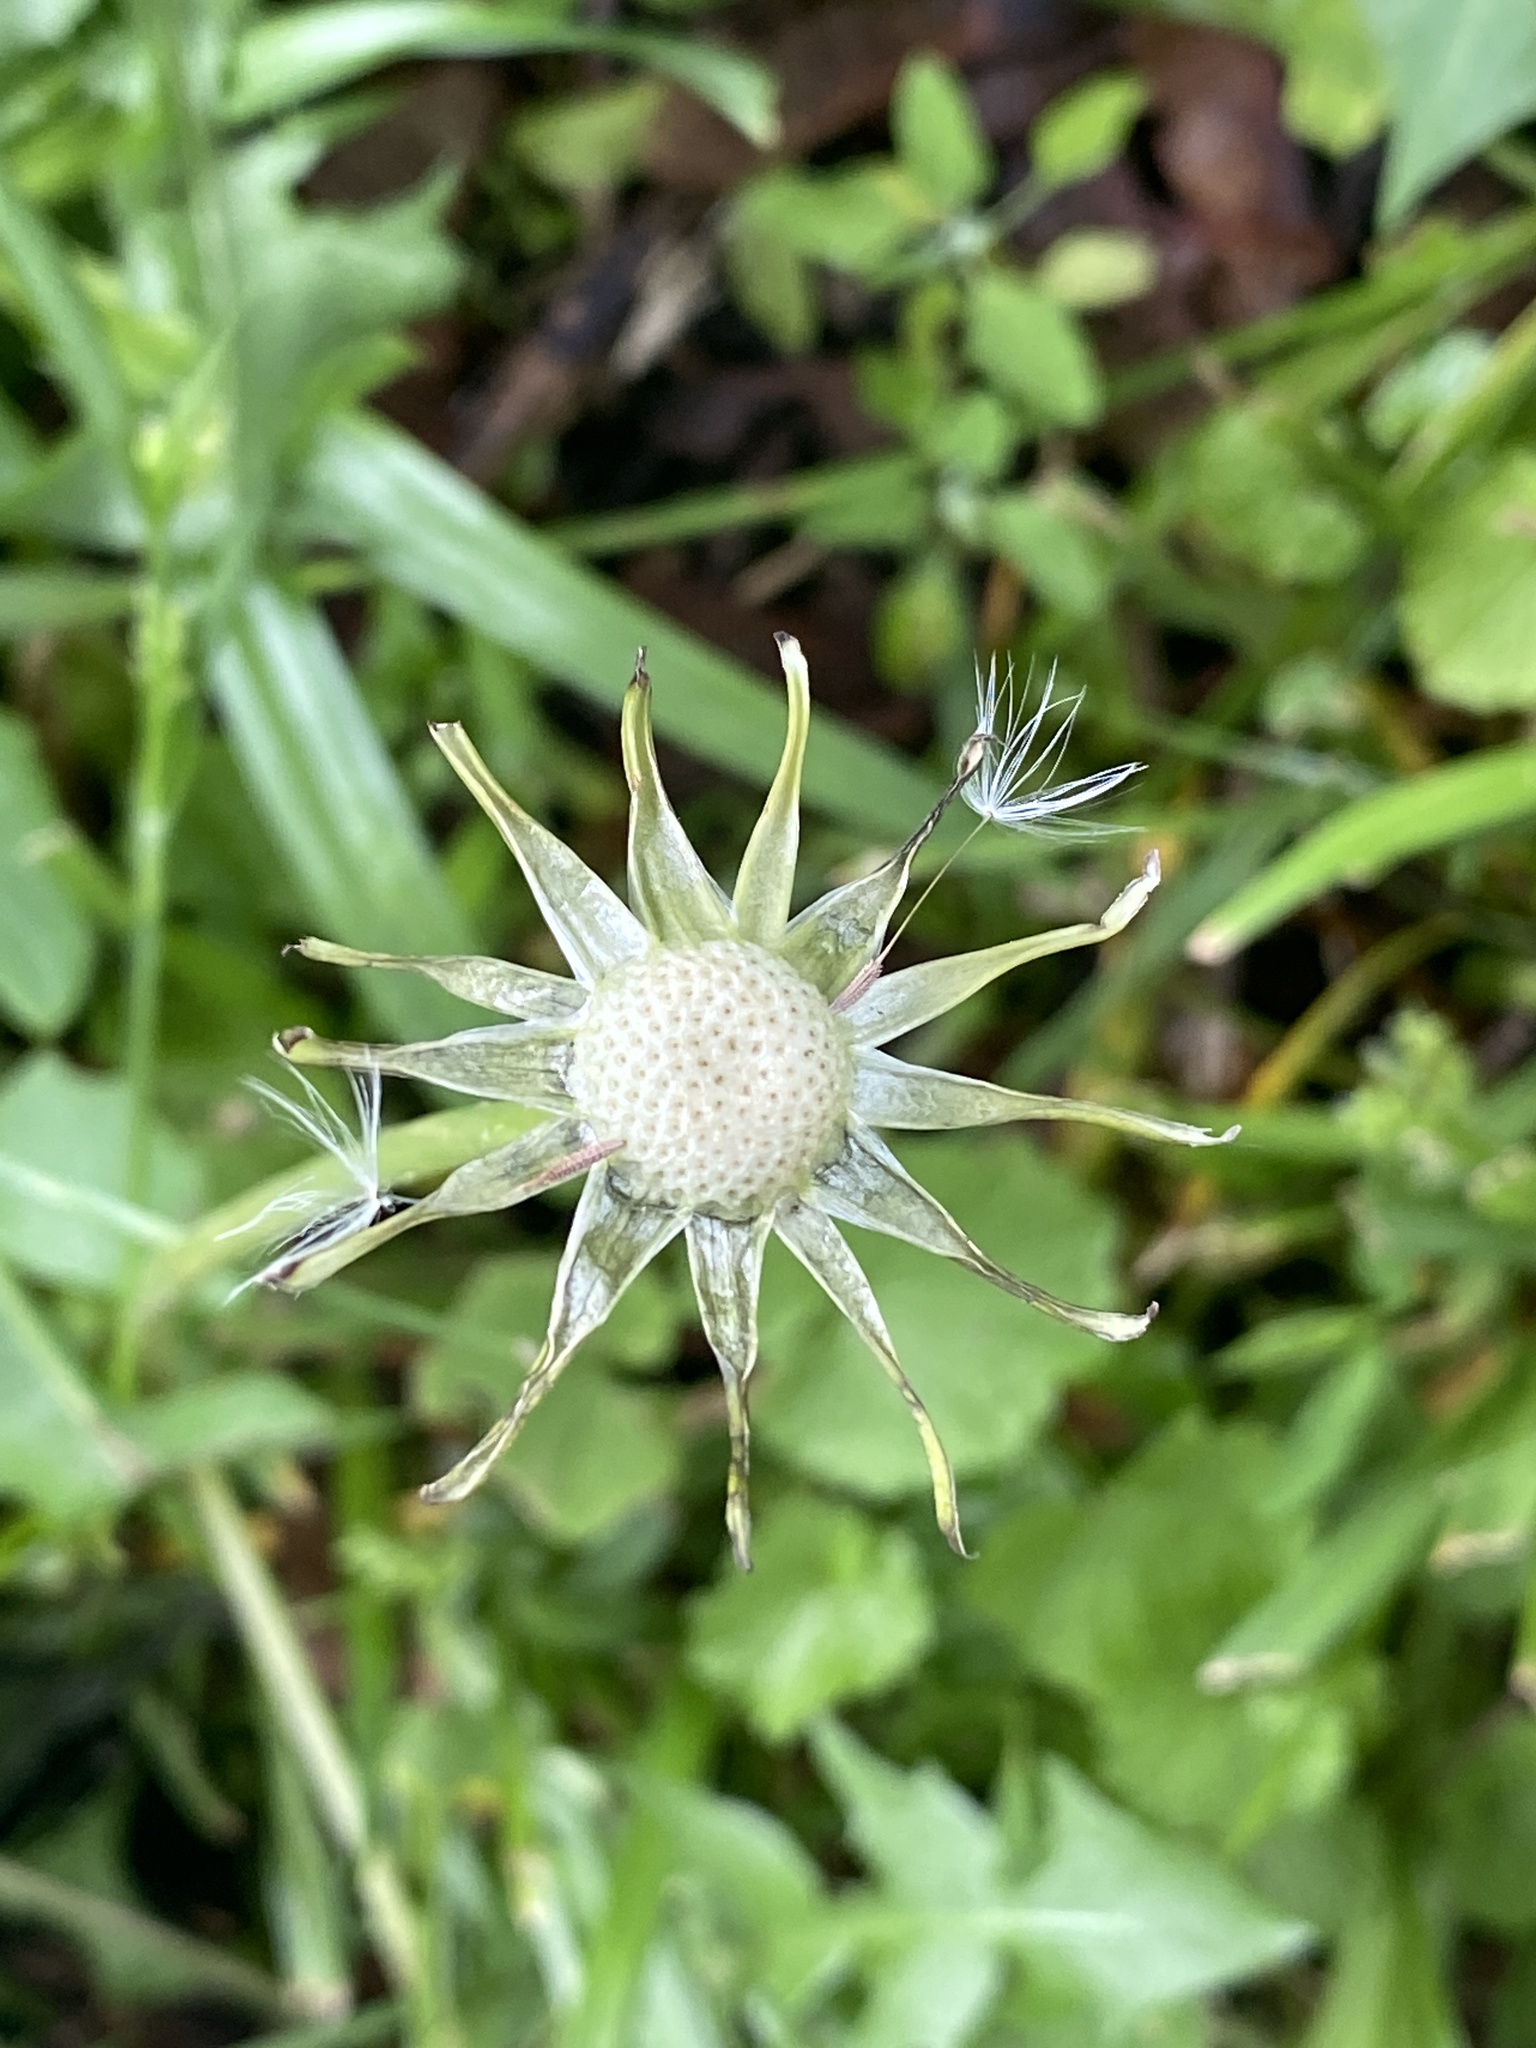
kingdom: Plantae
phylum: Tracheophyta
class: Magnoliopsida
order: Asterales
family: Asteraceae
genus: Taraxacum
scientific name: Taraxacum officinale
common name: Common dandelion
